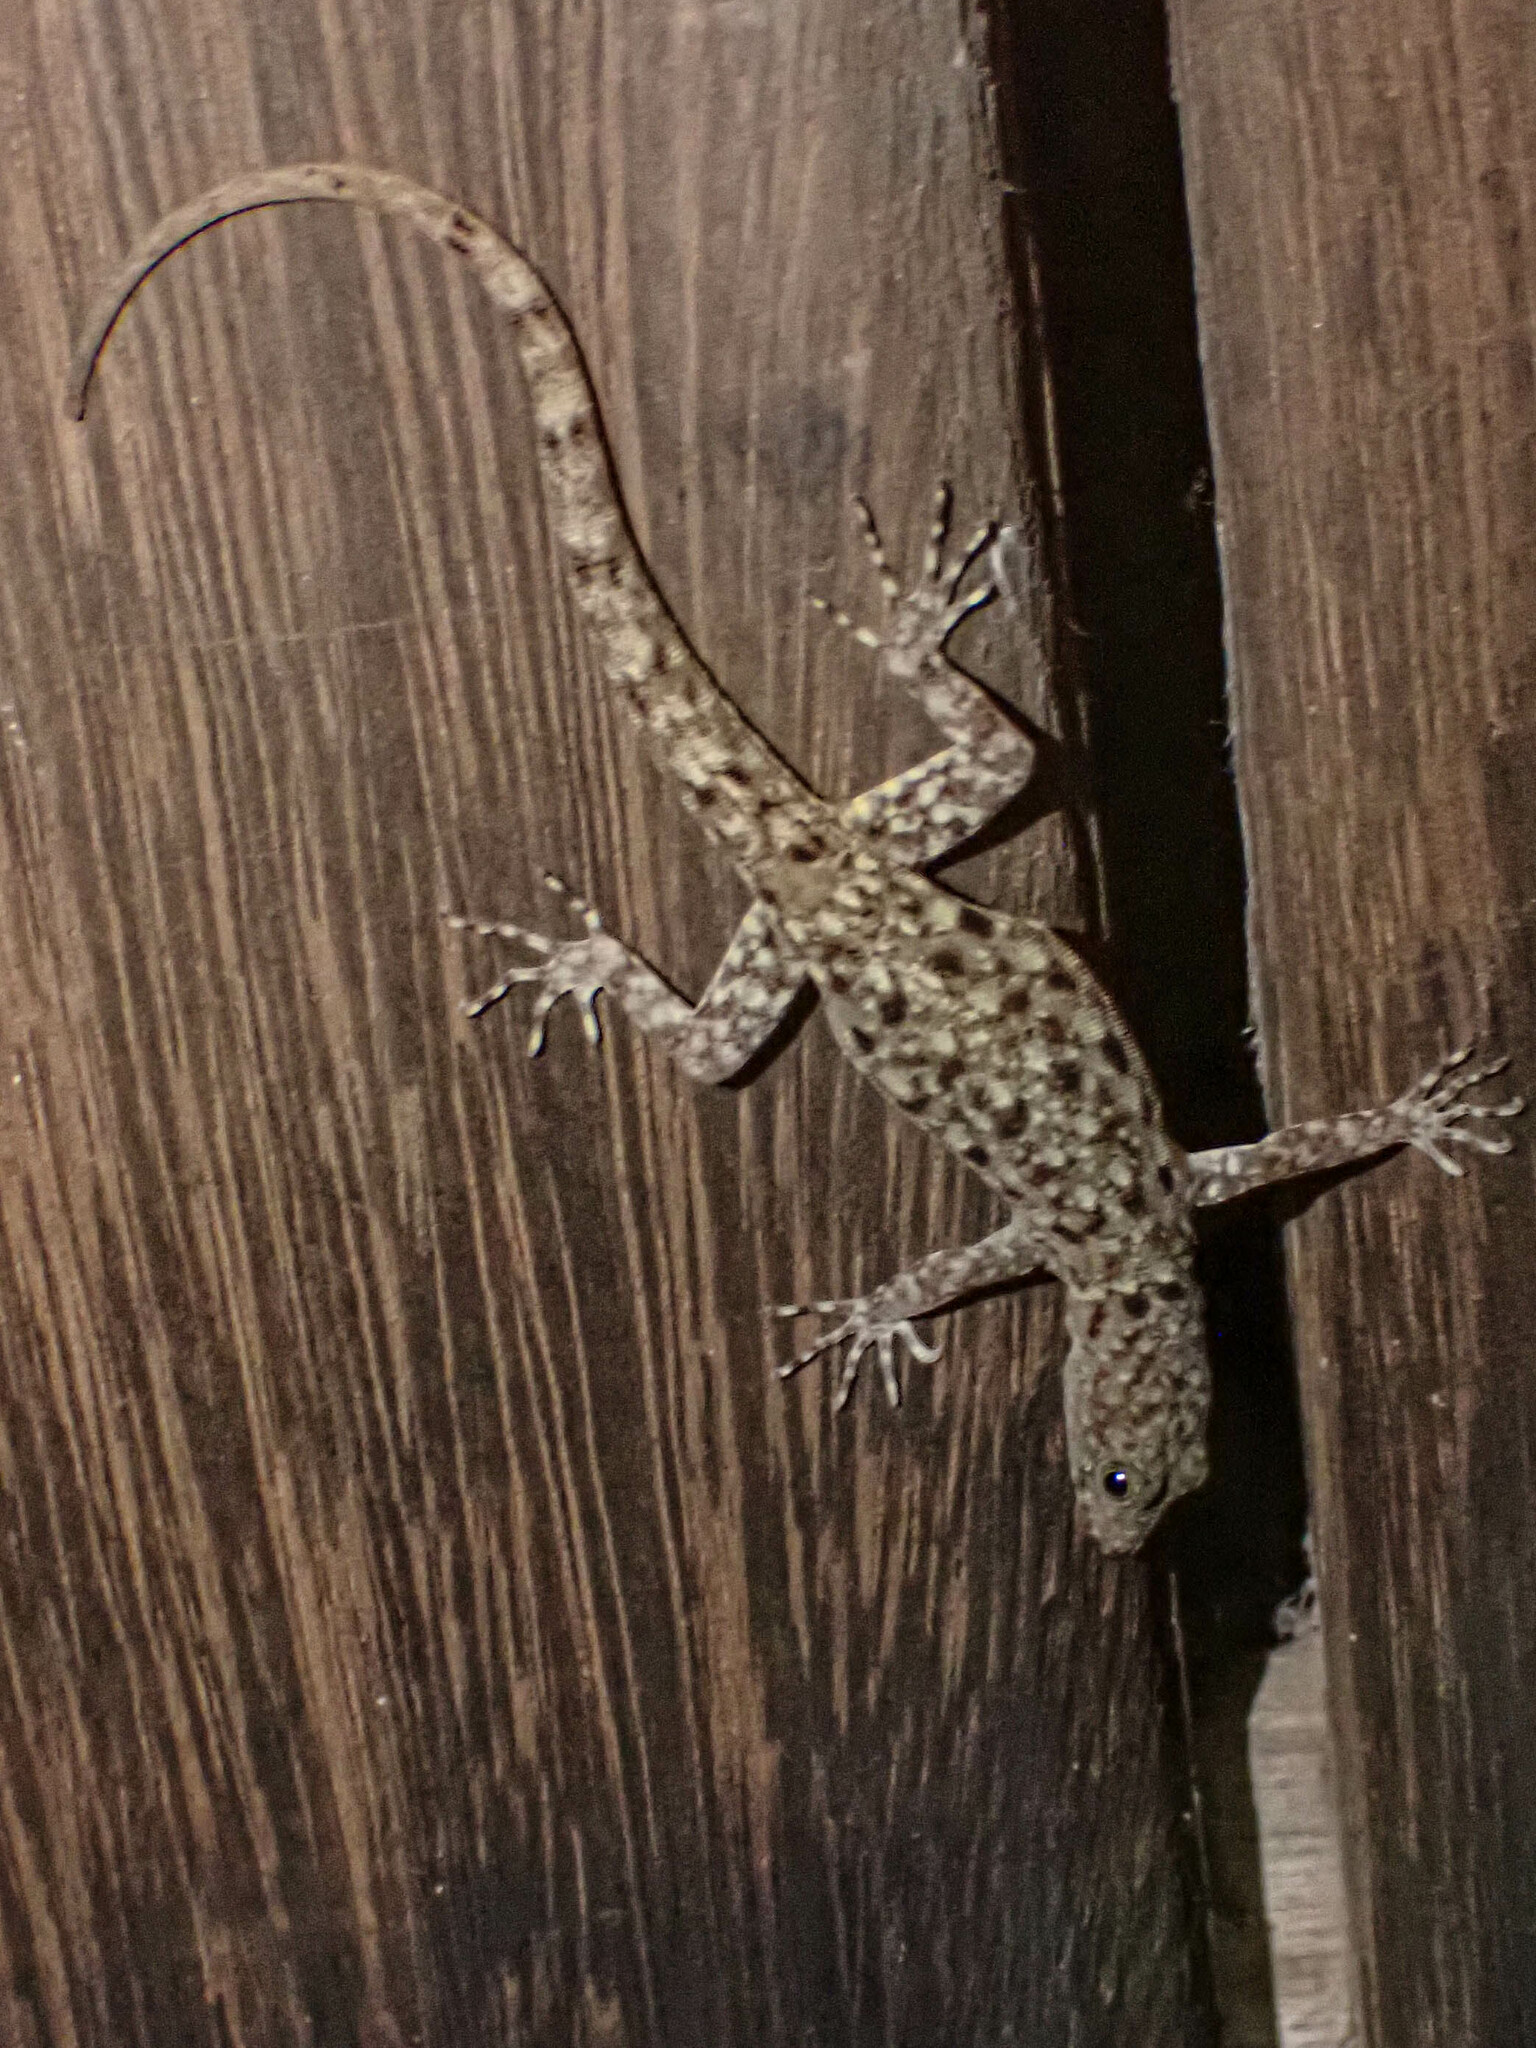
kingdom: Animalia
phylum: Chordata
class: Squamata
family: Sphaerodactylidae
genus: Gonatodes
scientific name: Gonatodes albogularis
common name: Yellow-headed gecko
